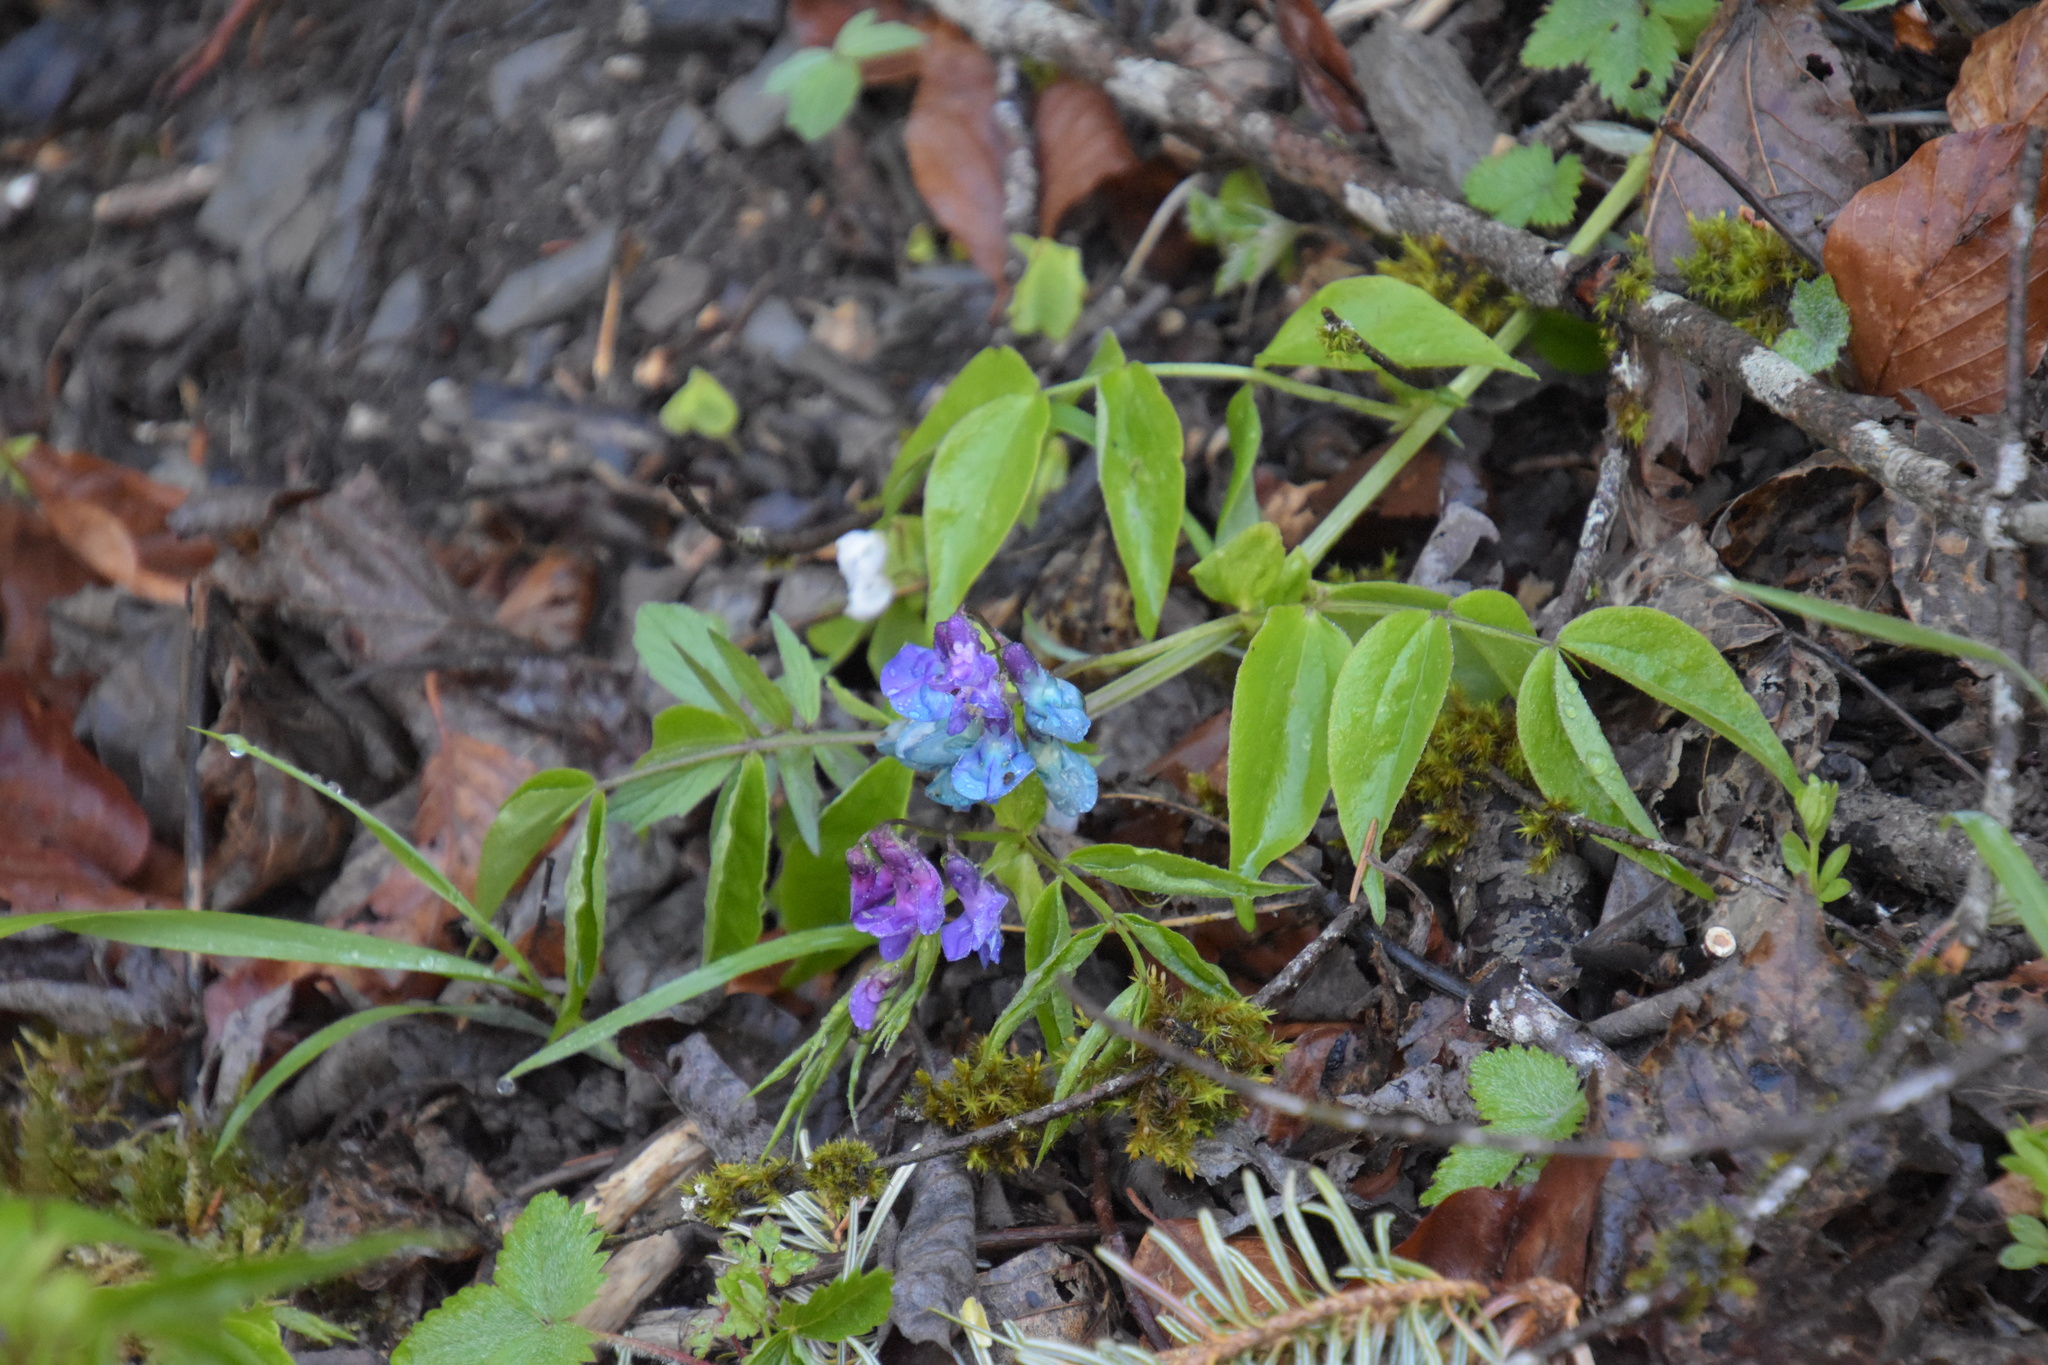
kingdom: Plantae
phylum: Tracheophyta
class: Magnoliopsida
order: Fabales
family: Fabaceae
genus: Lathyrus
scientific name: Lathyrus vernus
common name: Spring pea
